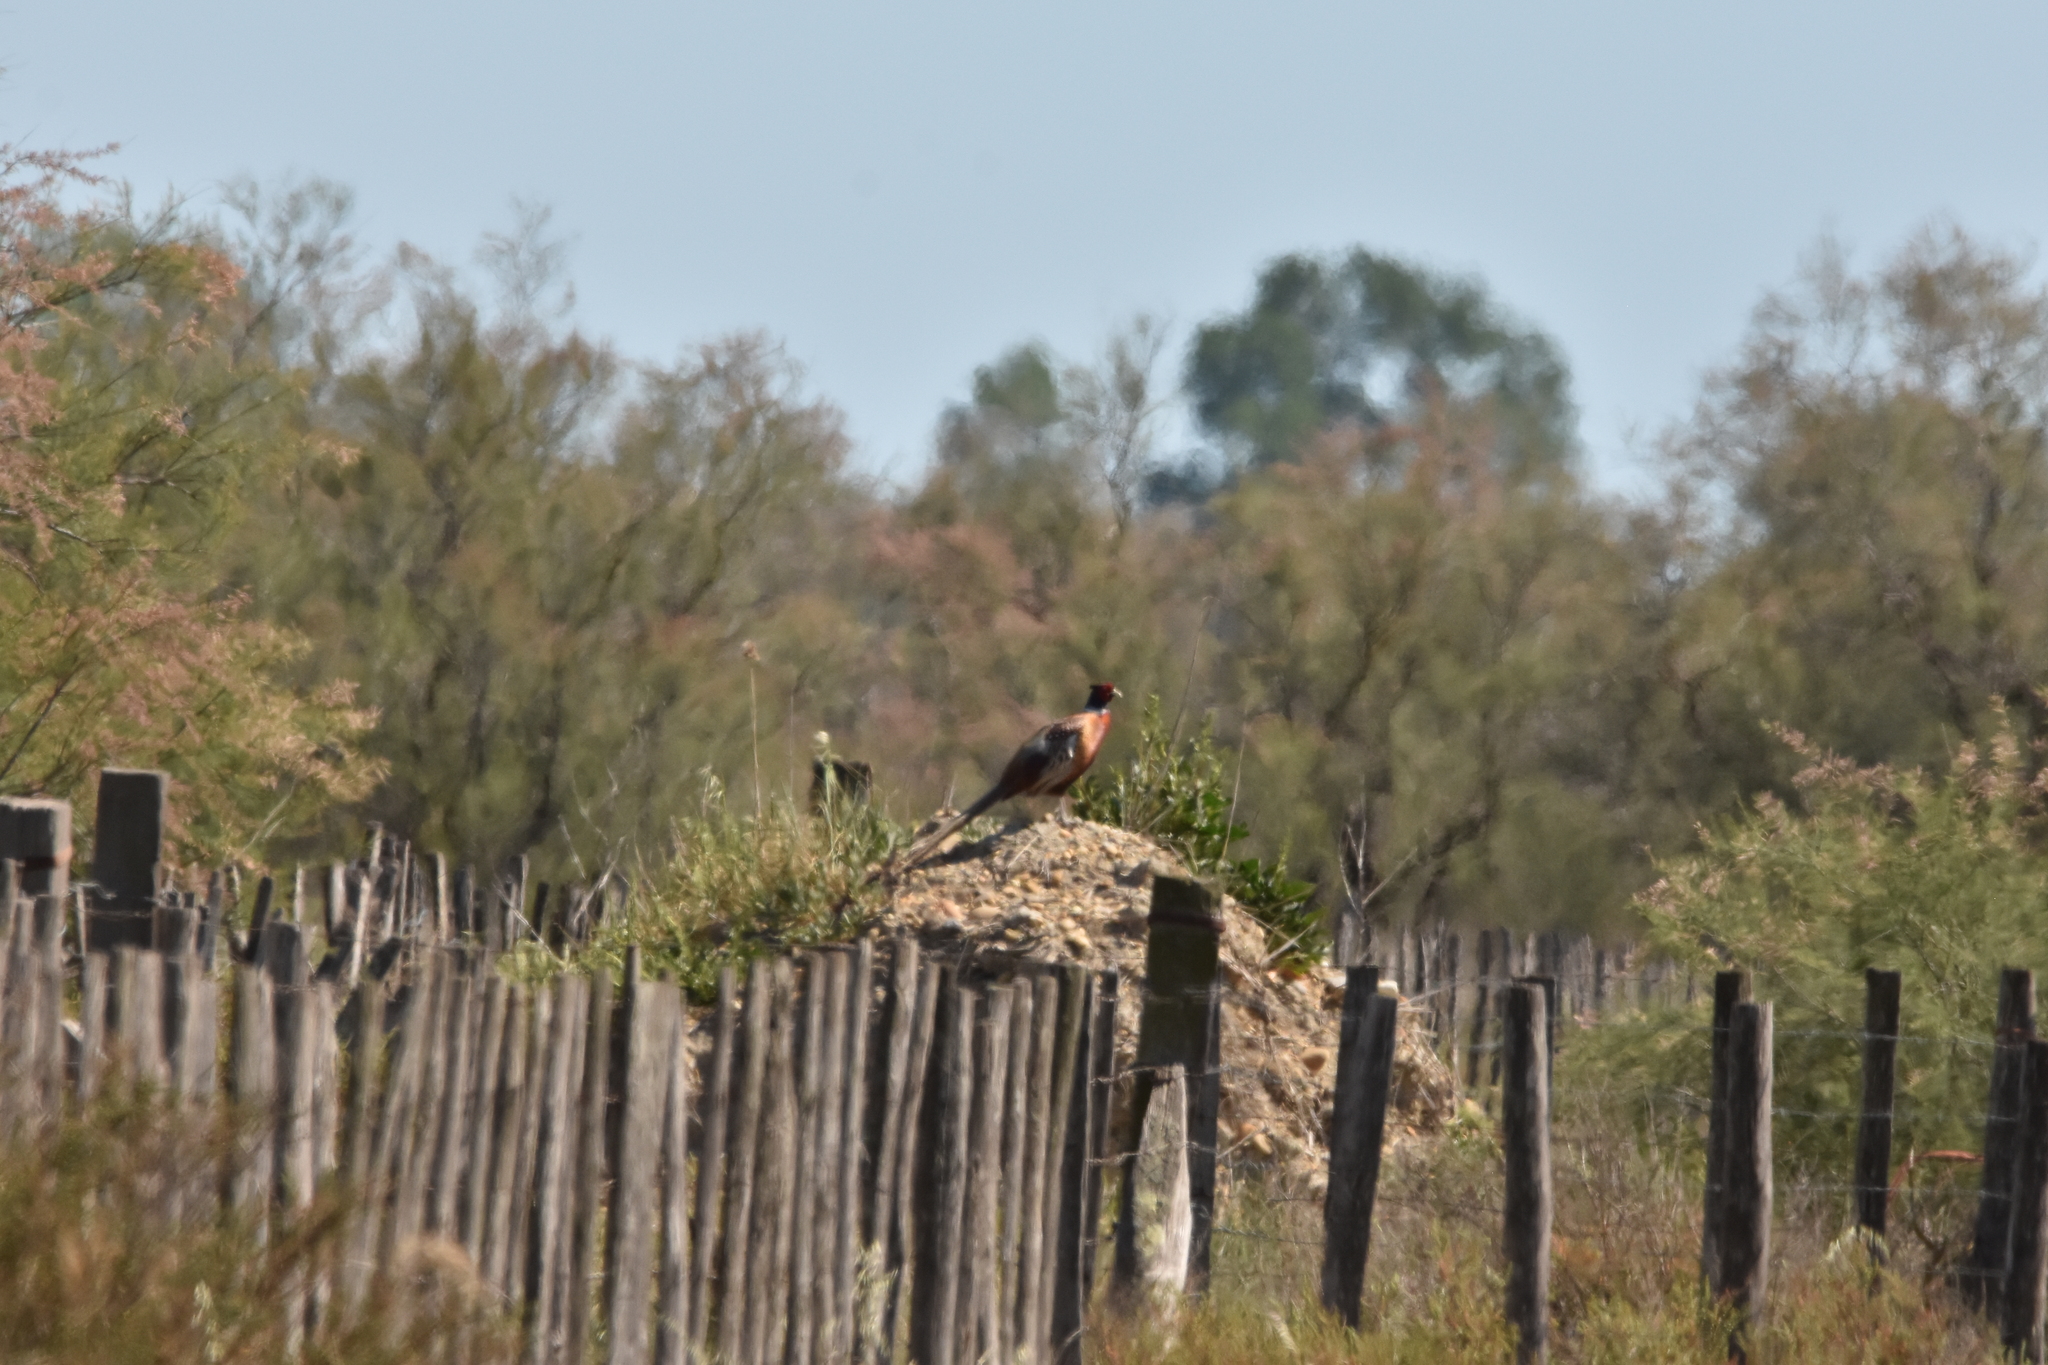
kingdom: Animalia
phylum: Chordata
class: Aves
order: Galliformes
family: Phasianidae
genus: Phasianus
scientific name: Phasianus colchicus
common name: Common pheasant
